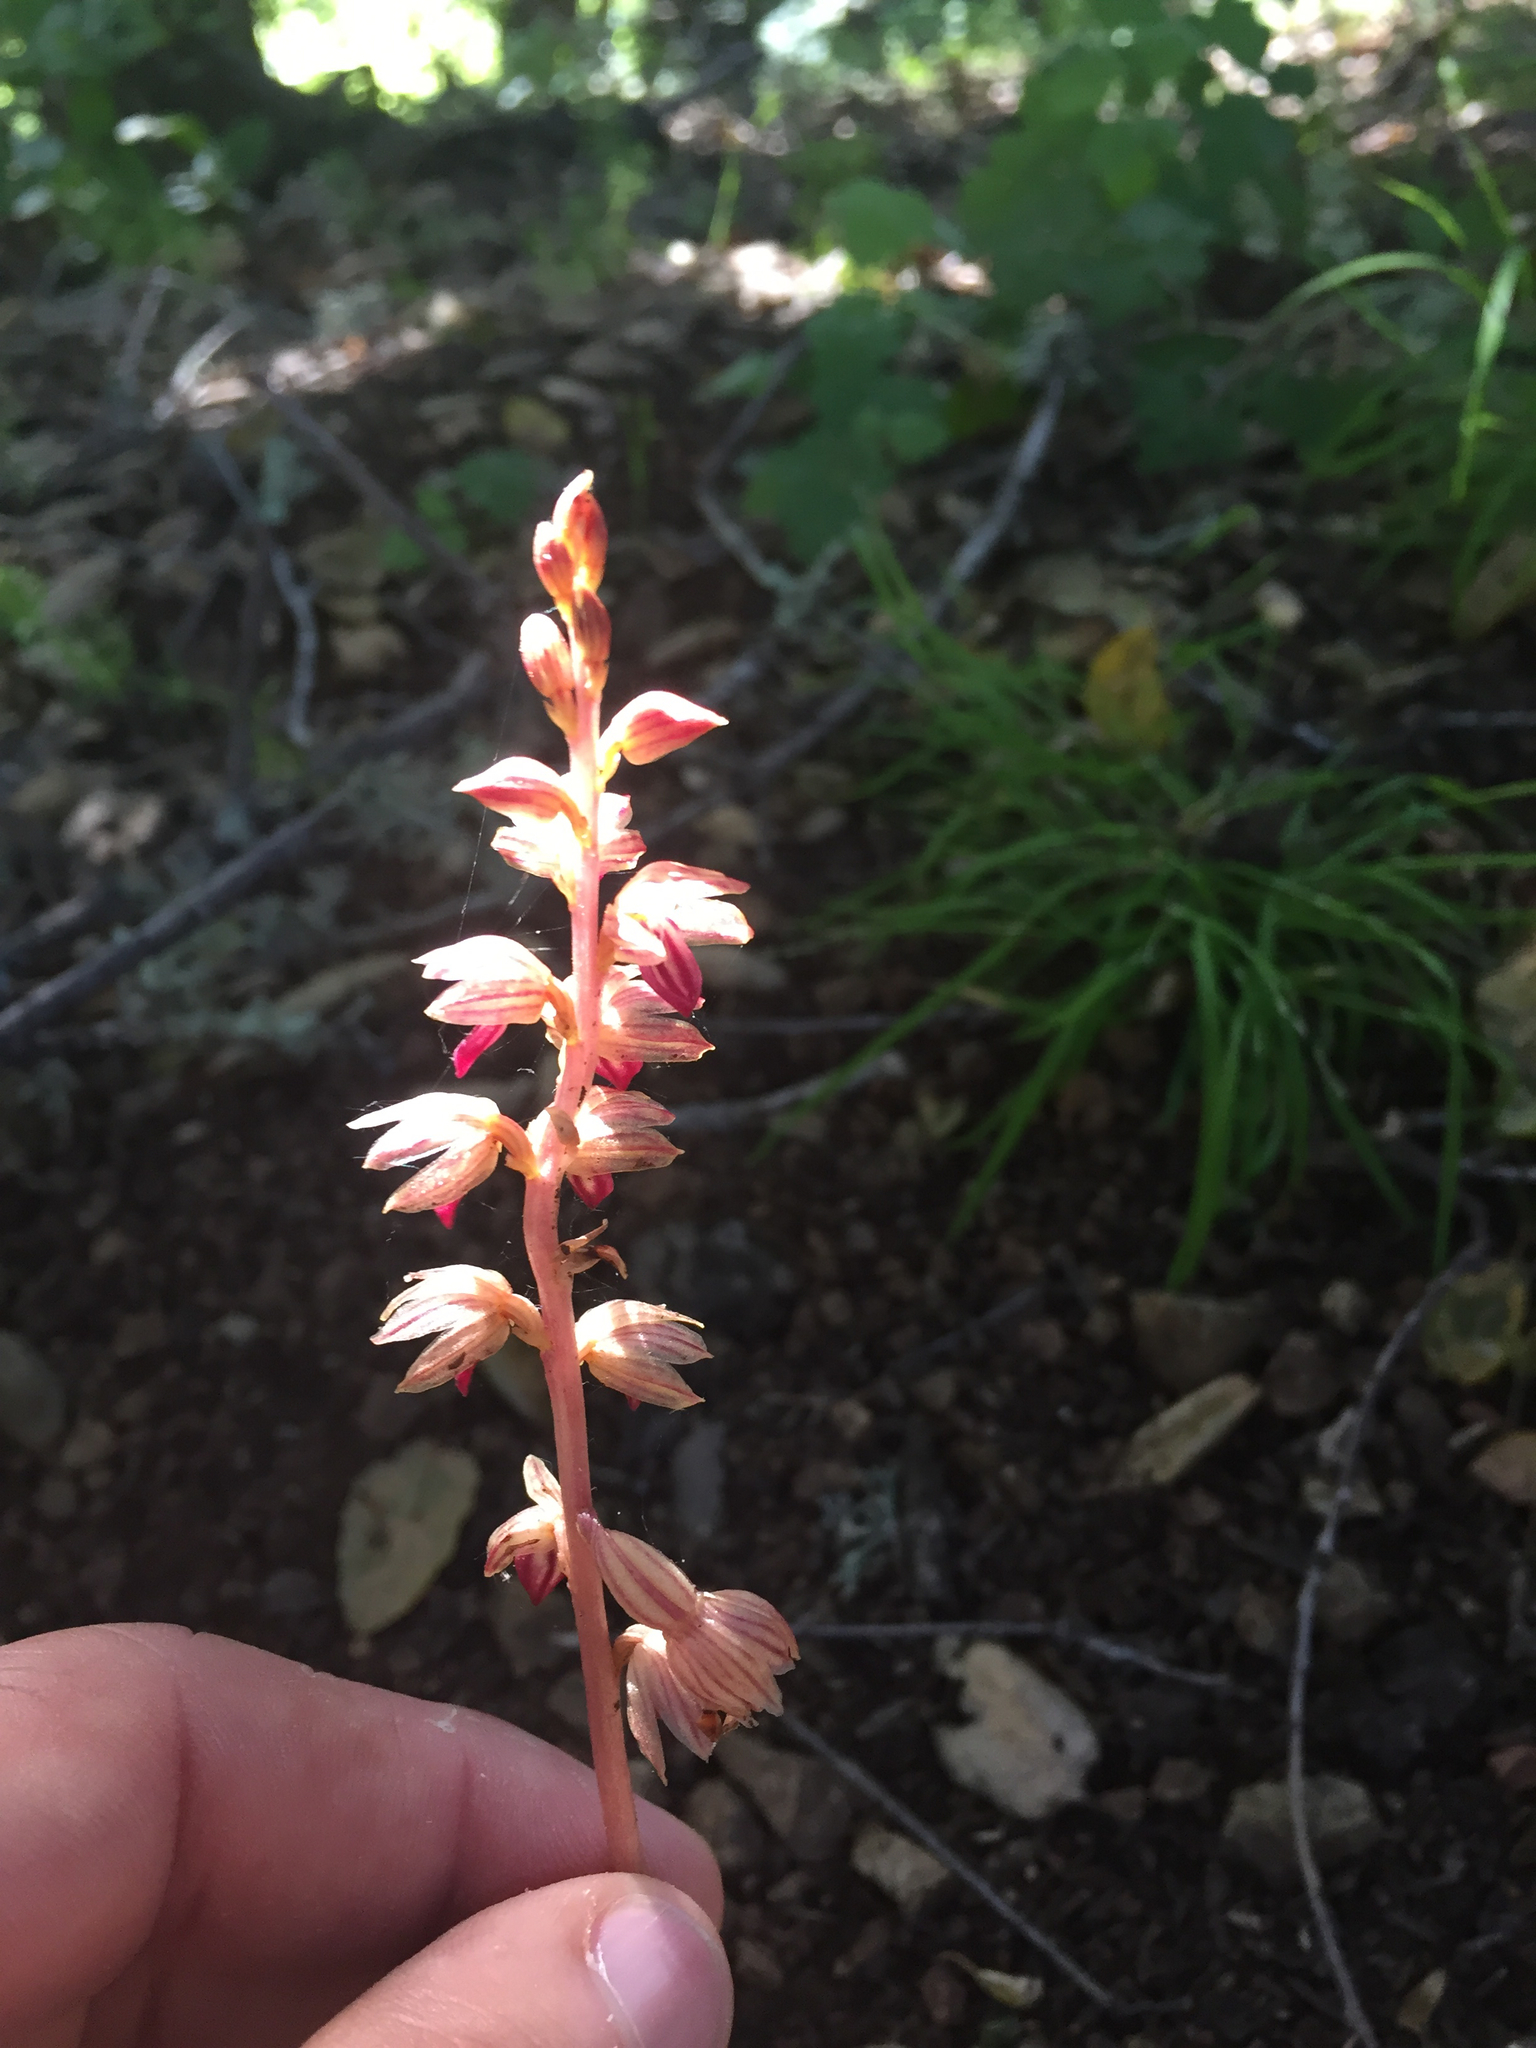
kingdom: Plantae
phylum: Tracheophyta
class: Liliopsida
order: Asparagales
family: Orchidaceae
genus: Corallorhiza
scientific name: Corallorhiza striata
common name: Hooded coralroot
